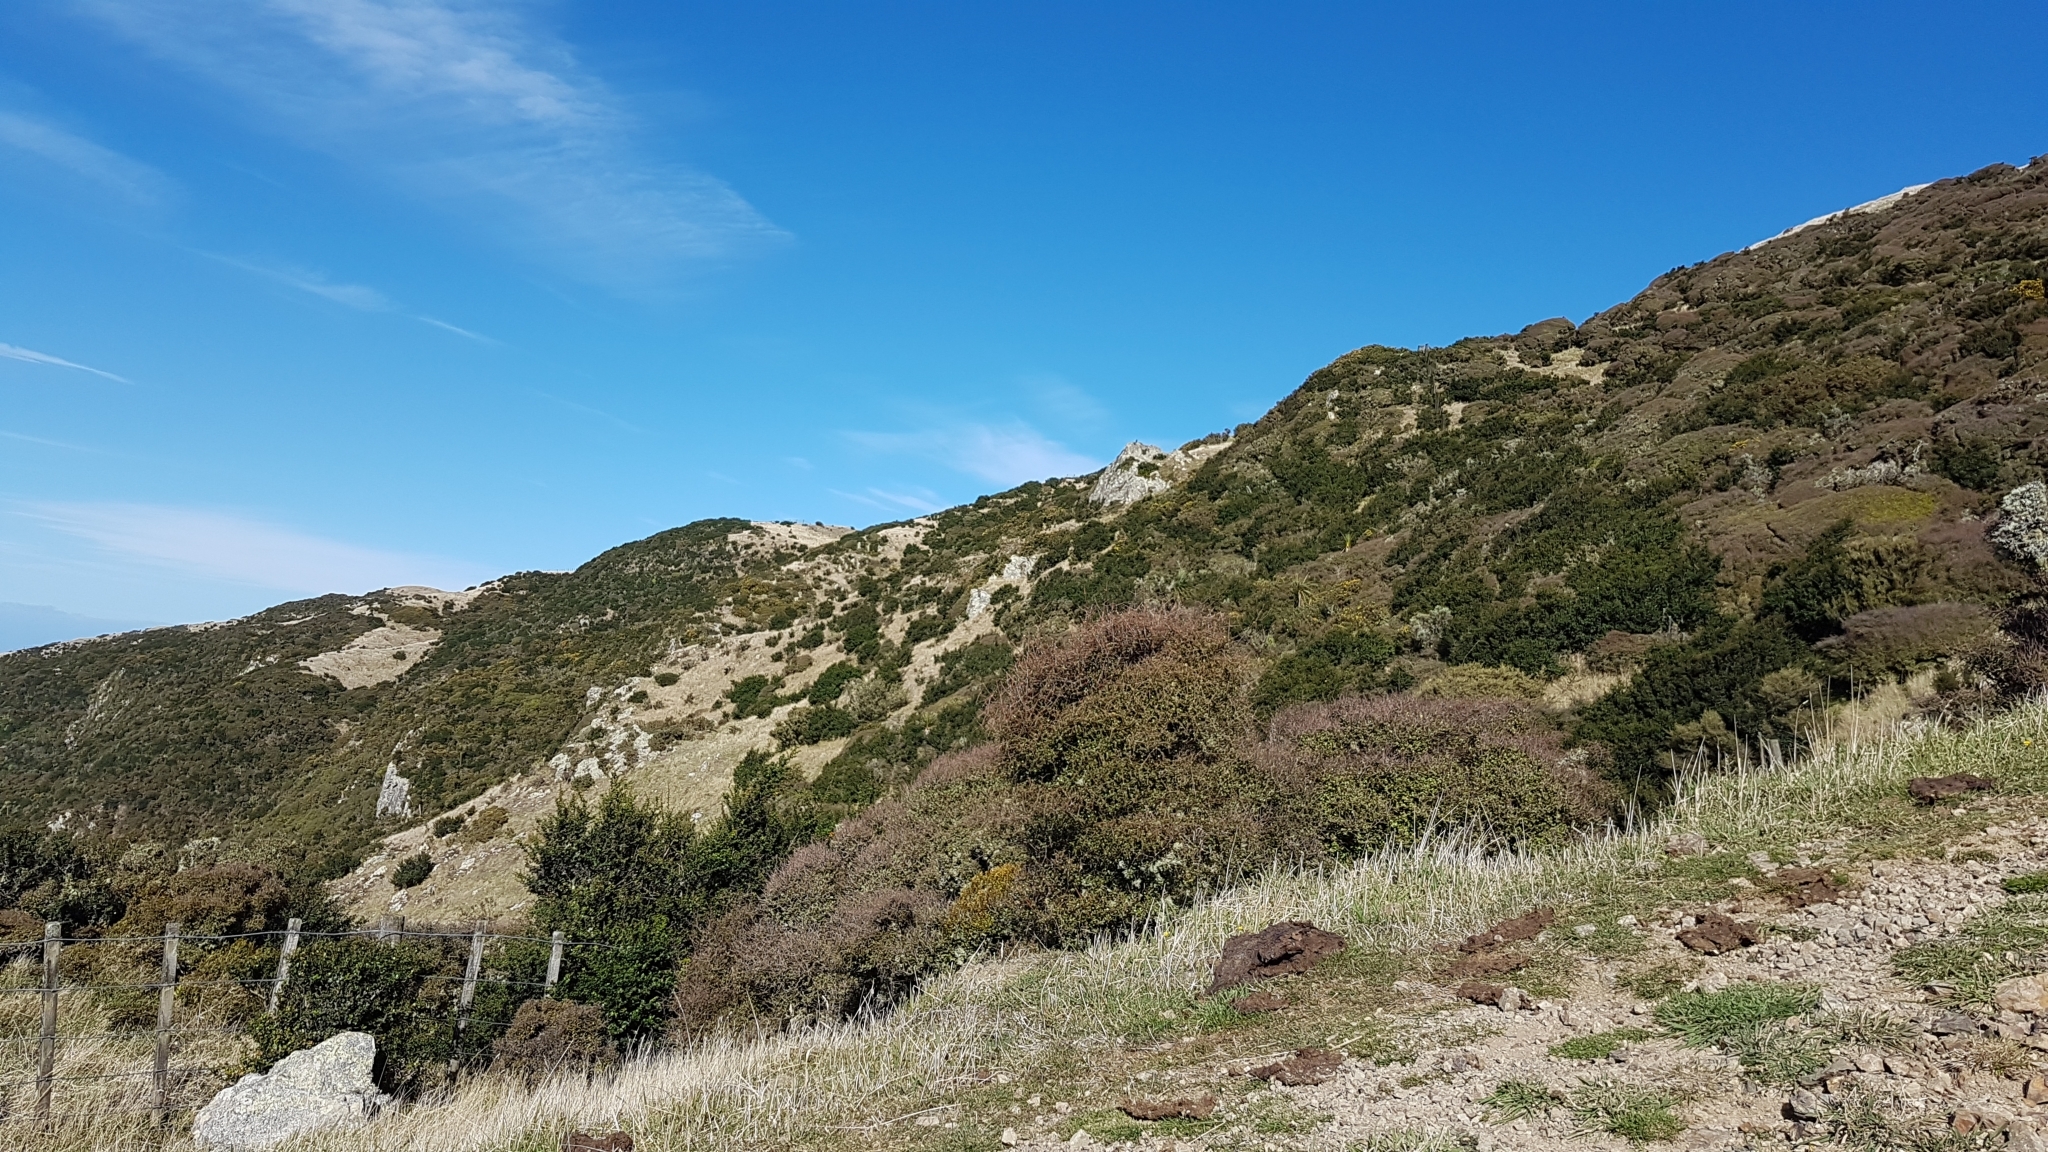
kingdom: Animalia
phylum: Chordata
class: Aves
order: Falconiformes
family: Falconidae
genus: Falco
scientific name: Falco novaeseelandiae
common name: New zealand falcon
